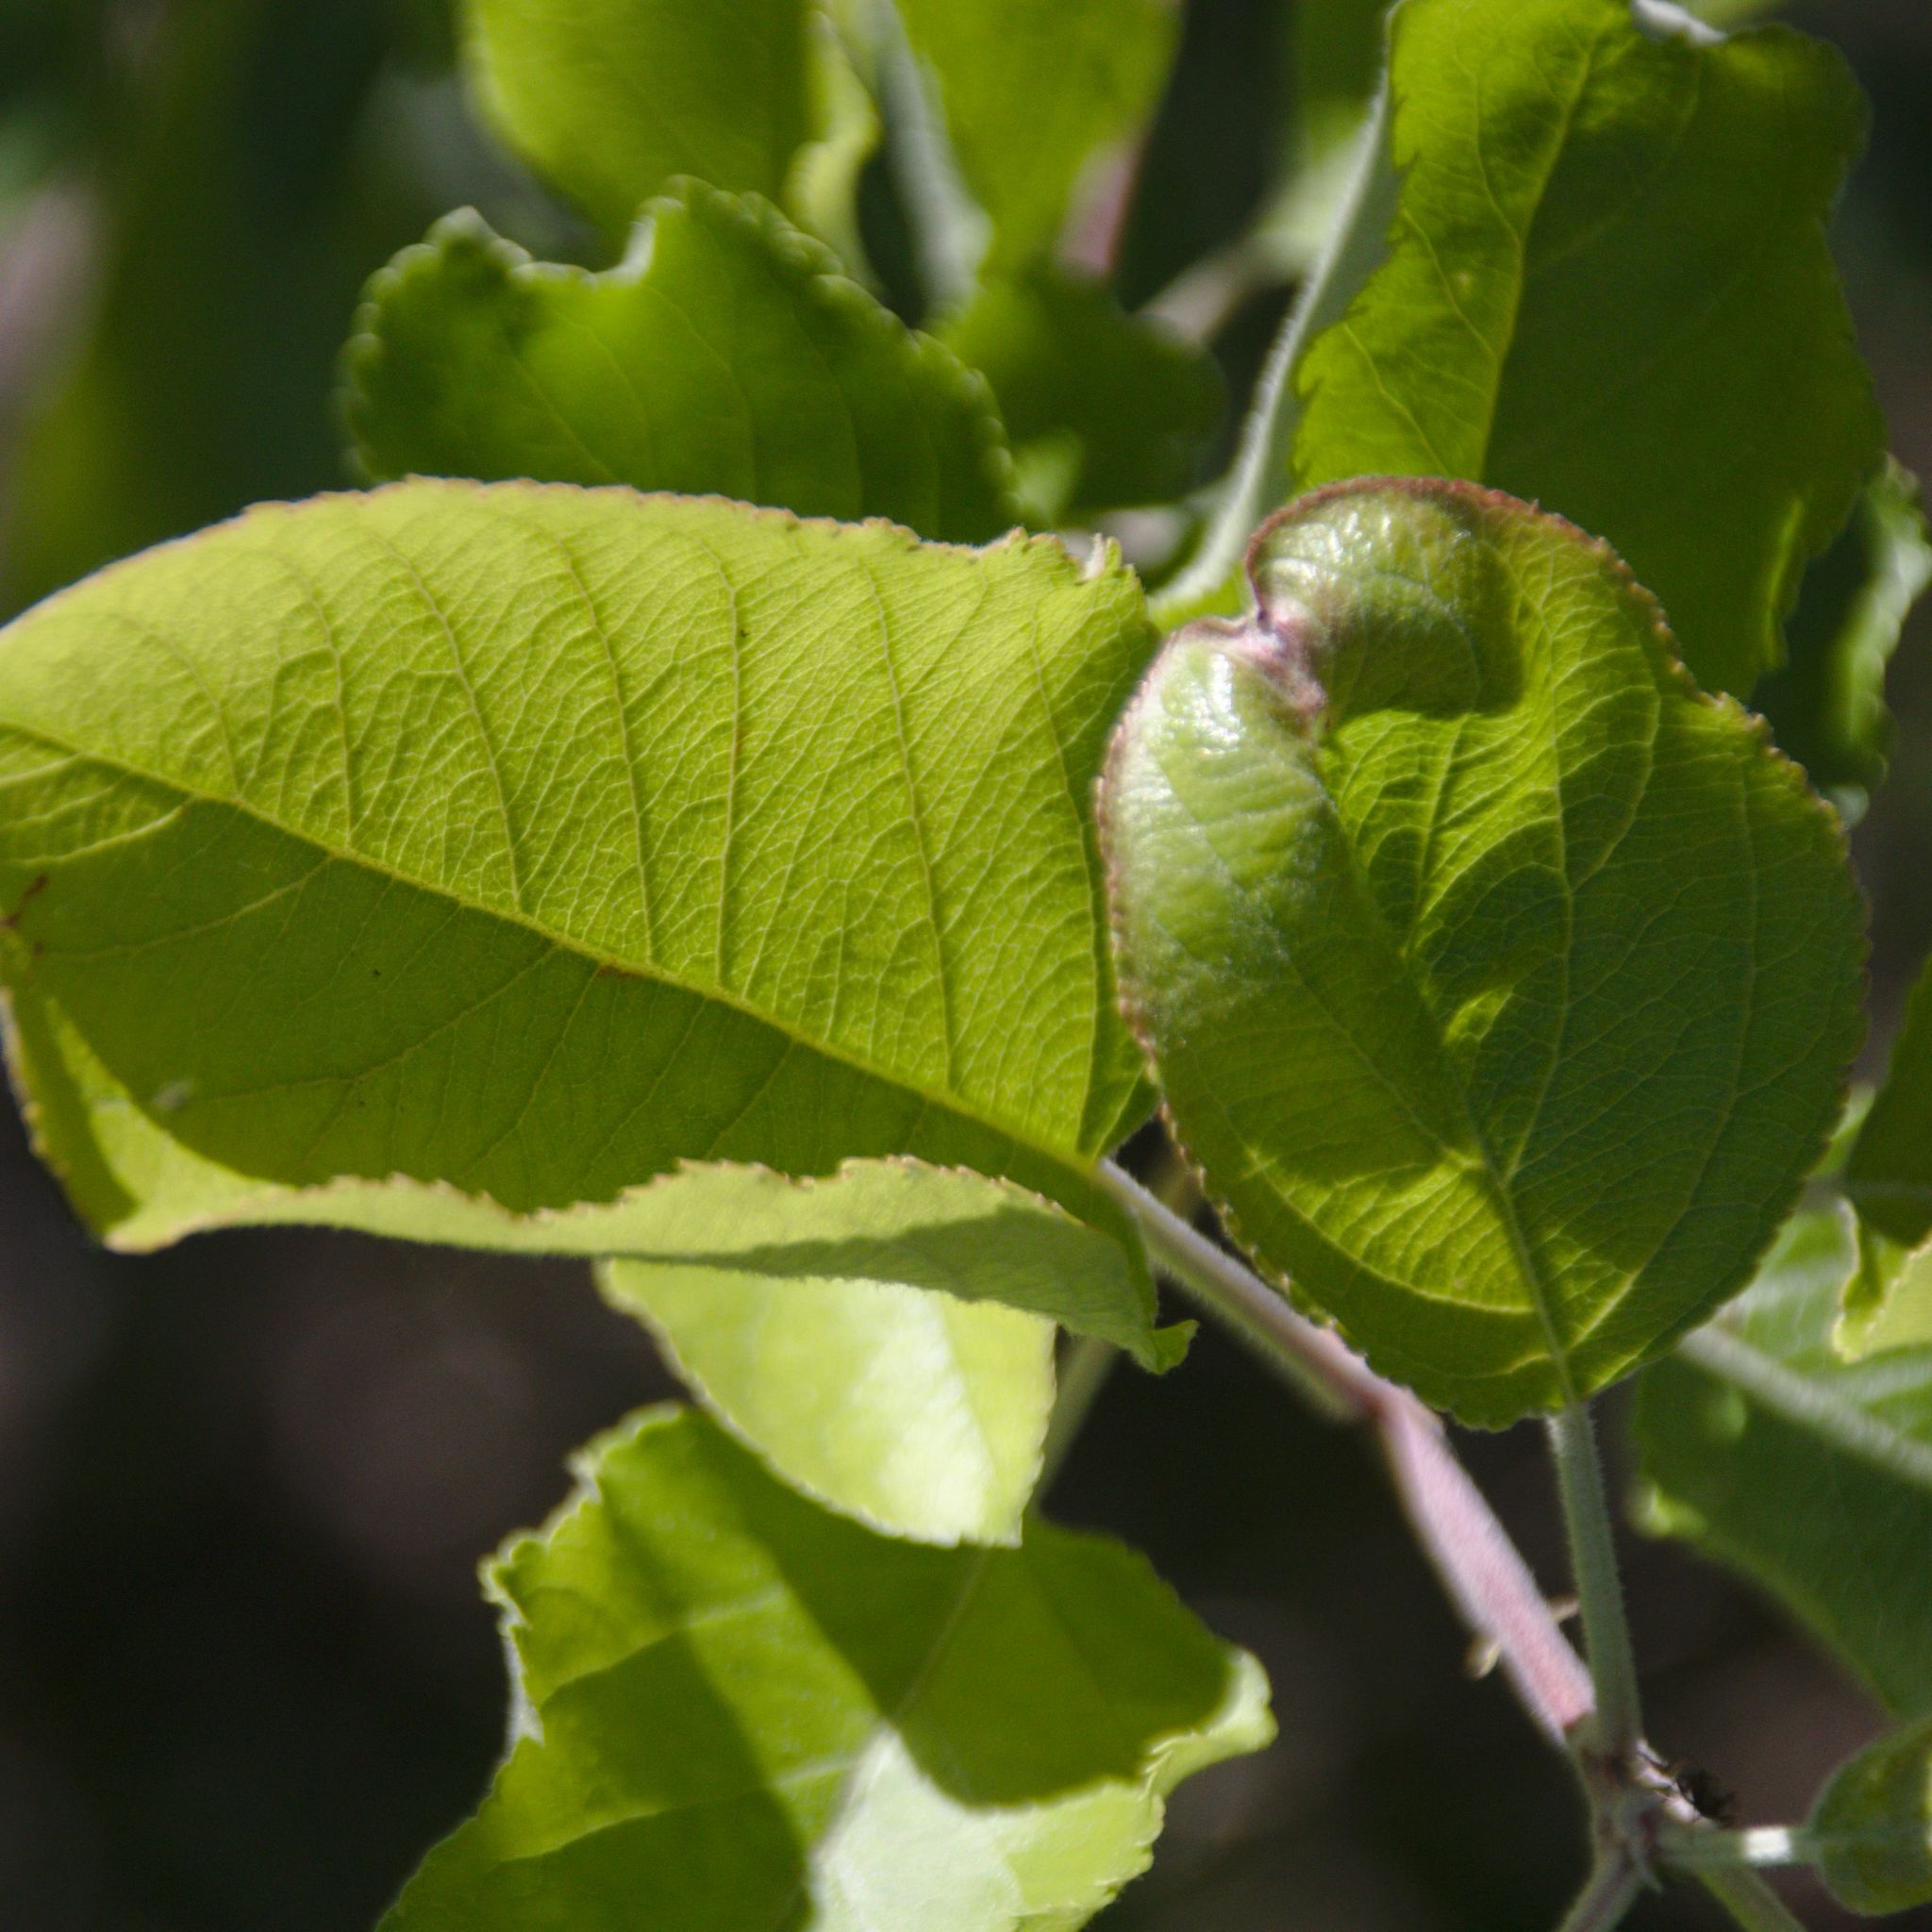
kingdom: Plantae
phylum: Tracheophyta
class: Magnoliopsida
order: Rosales
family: Rosaceae
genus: Malus
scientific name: Malus domestica
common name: Apple
